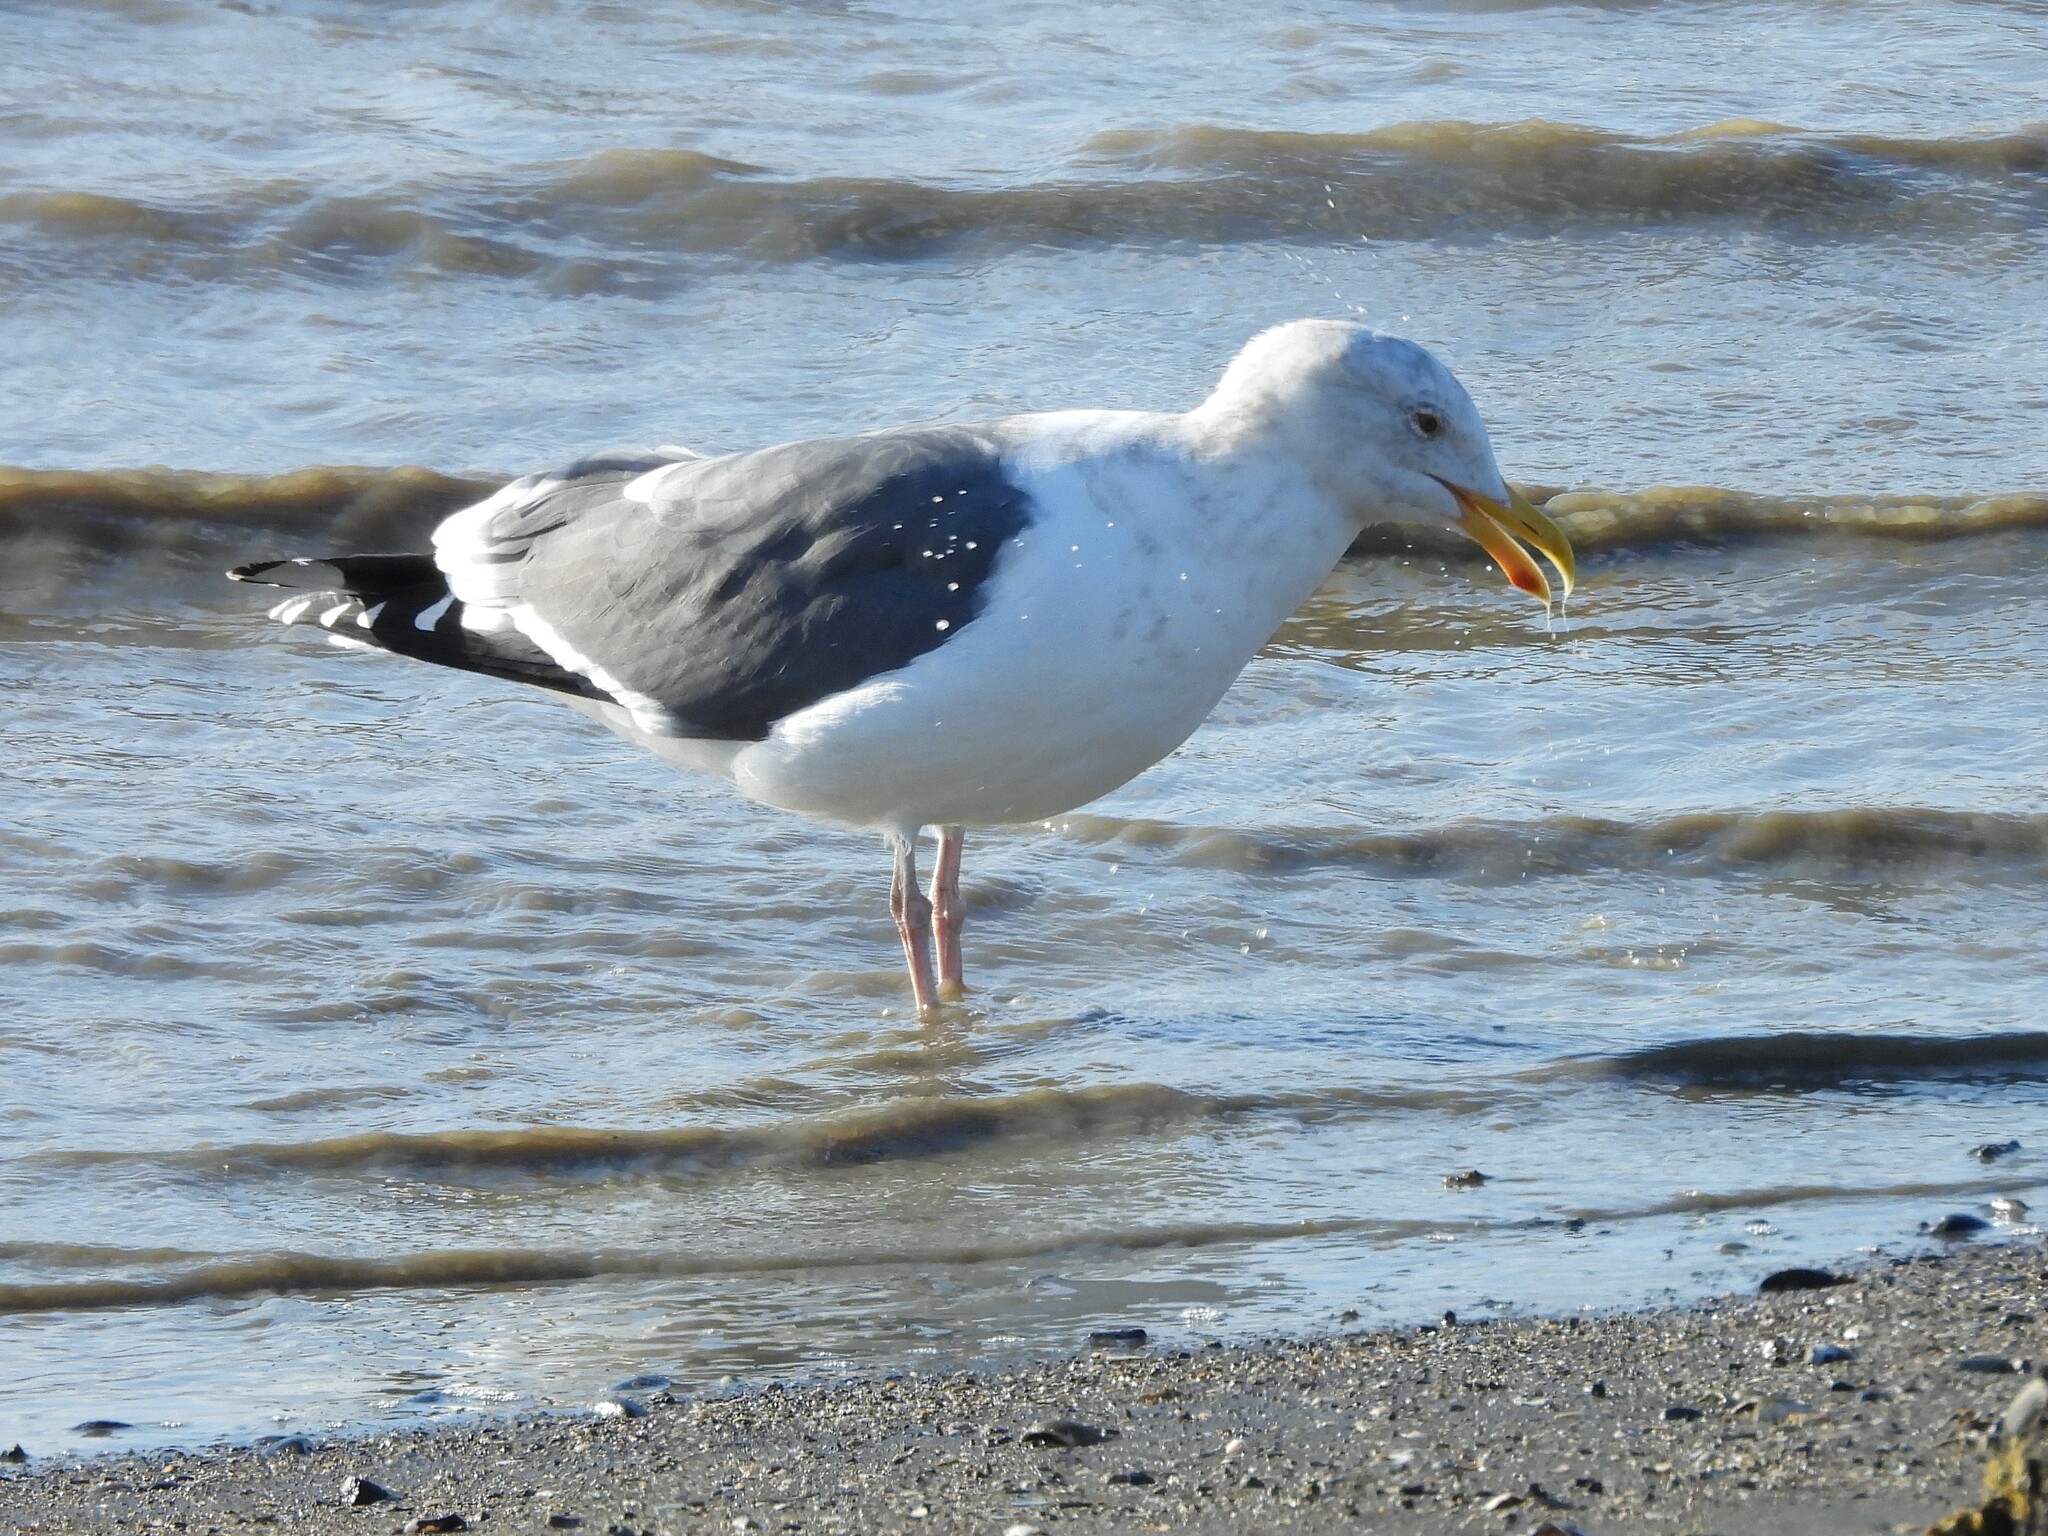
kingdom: Animalia
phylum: Chordata
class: Aves
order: Charadriiformes
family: Laridae
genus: Larus
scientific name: Larus occidentalis
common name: Western gull
